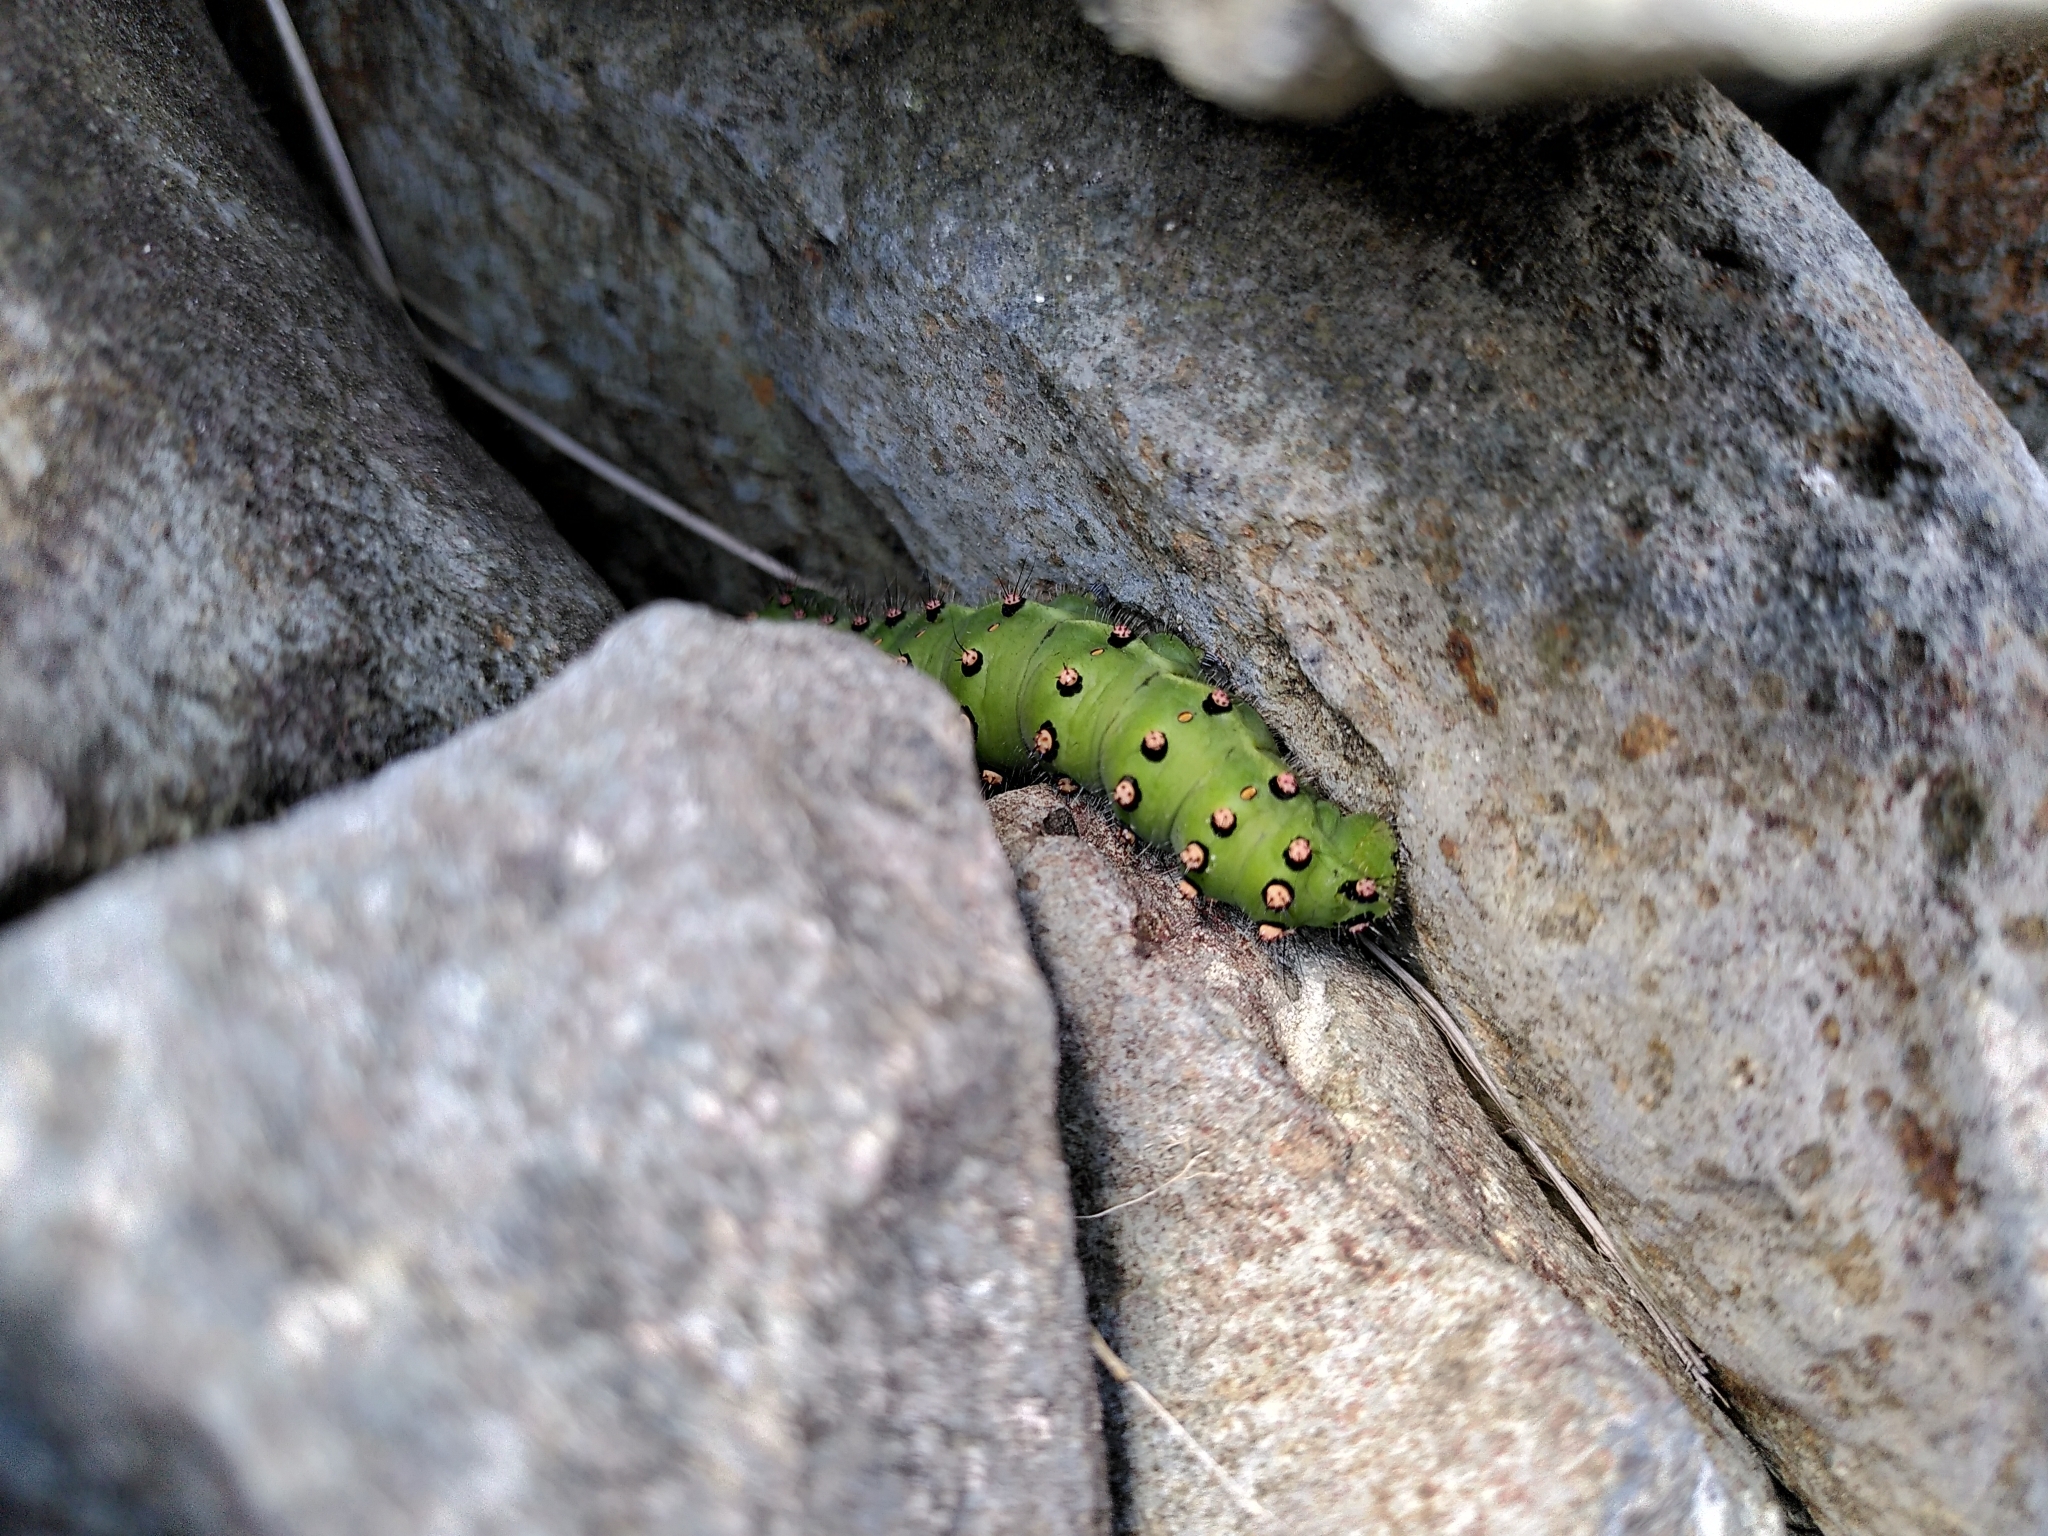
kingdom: Animalia
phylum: Arthropoda
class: Insecta
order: Lepidoptera
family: Saturniidae
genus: Saturnia
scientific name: Saturnia pavonia
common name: Emperor moth
